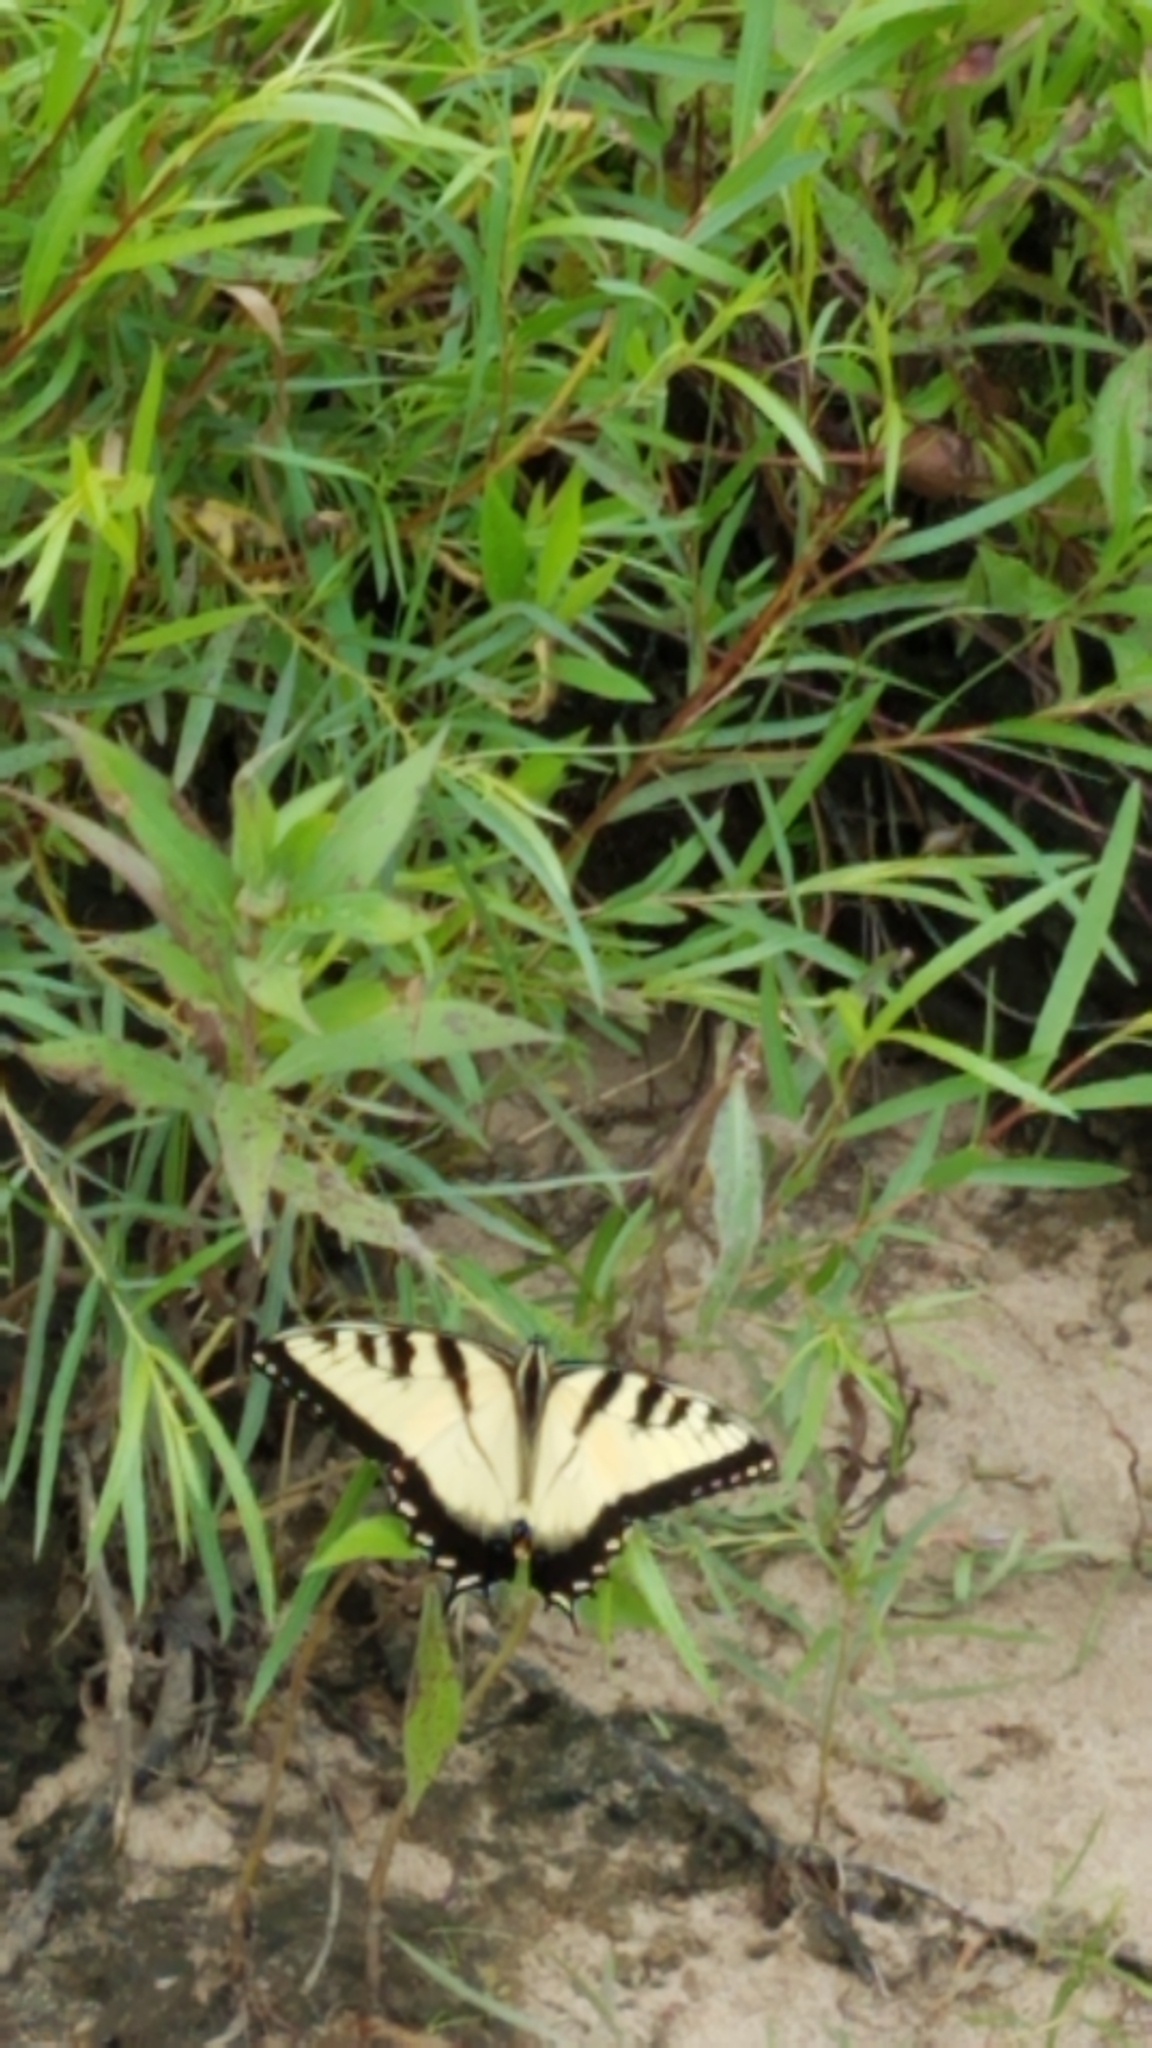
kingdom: Animalia
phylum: Arthropoda
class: Insecta
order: Lepidoptera
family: Papilionidae
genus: Papilio
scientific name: Papilio glaucus
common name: Tiger swallowtail
